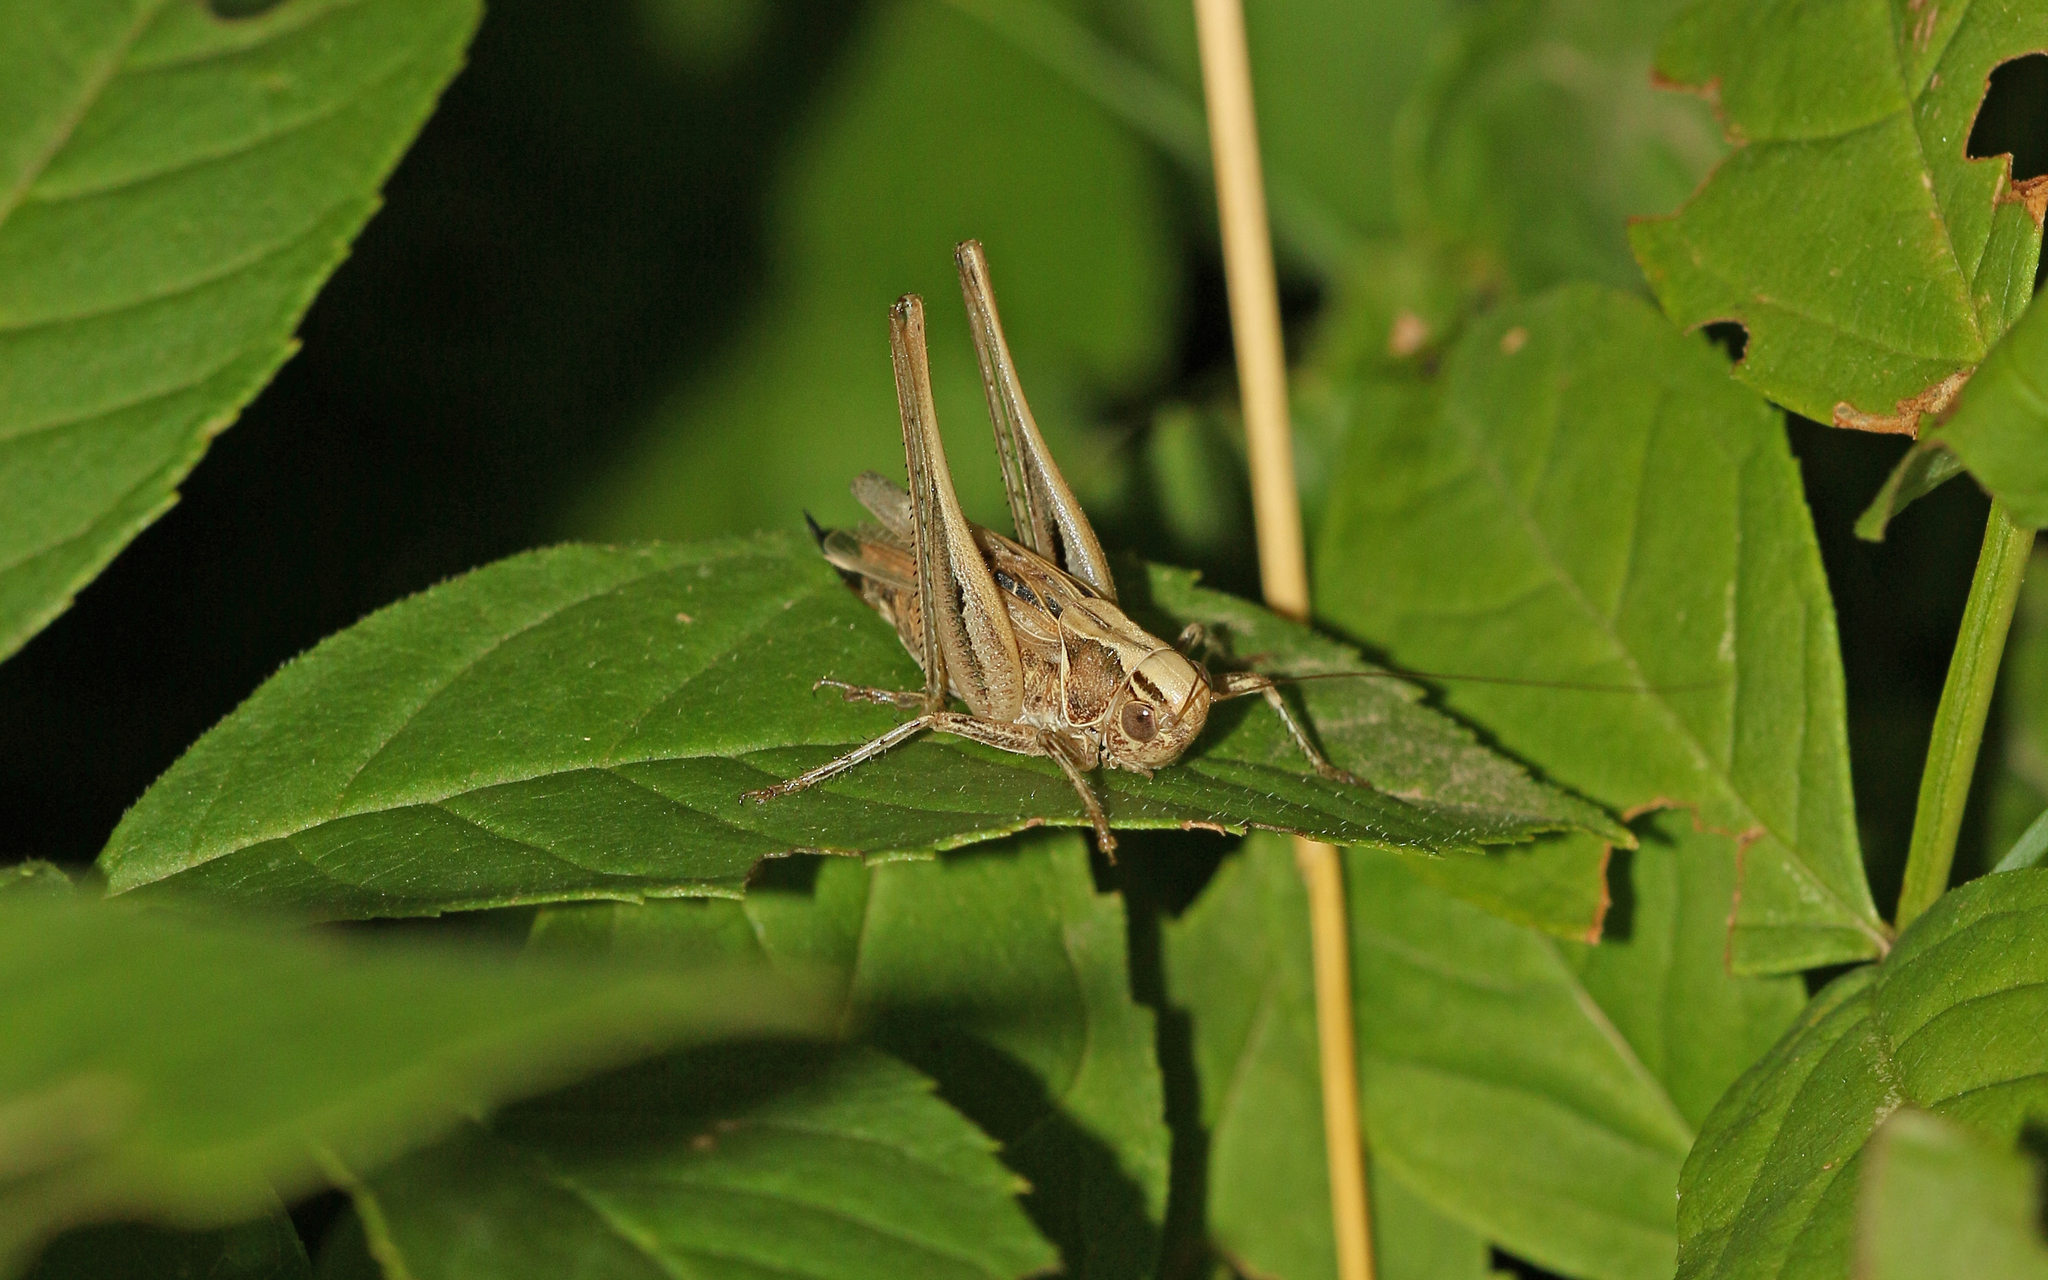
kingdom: Animalia
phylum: Arthropoda
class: Insecta
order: Orthoptera
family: Tettigoniidae
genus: Tessellana
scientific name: Tessellana tessellata
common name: Grasshopper
